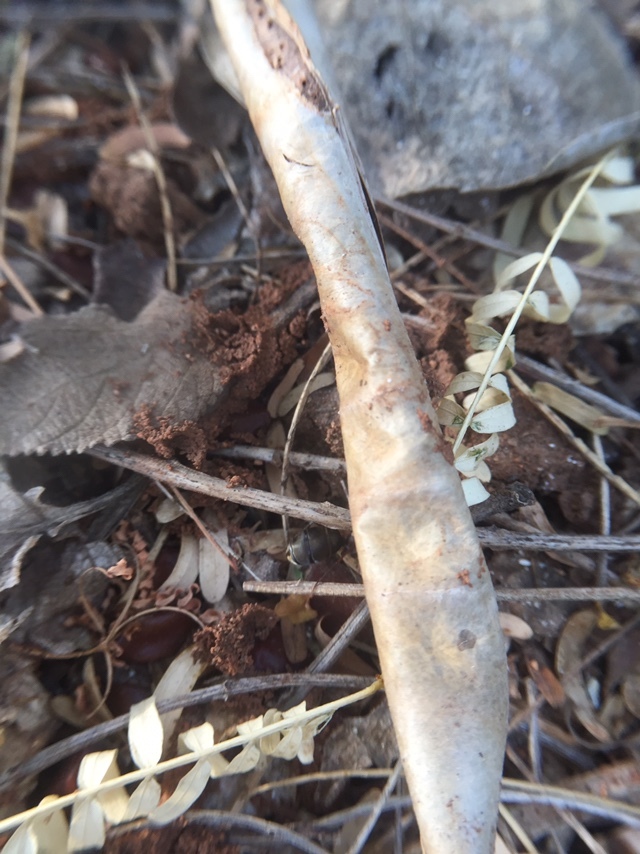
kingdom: Animalia
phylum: Arthropoda
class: Insecta
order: Hymenoptera
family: Formicidae
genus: Camponotus
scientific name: Camponotus rufoglaucus
